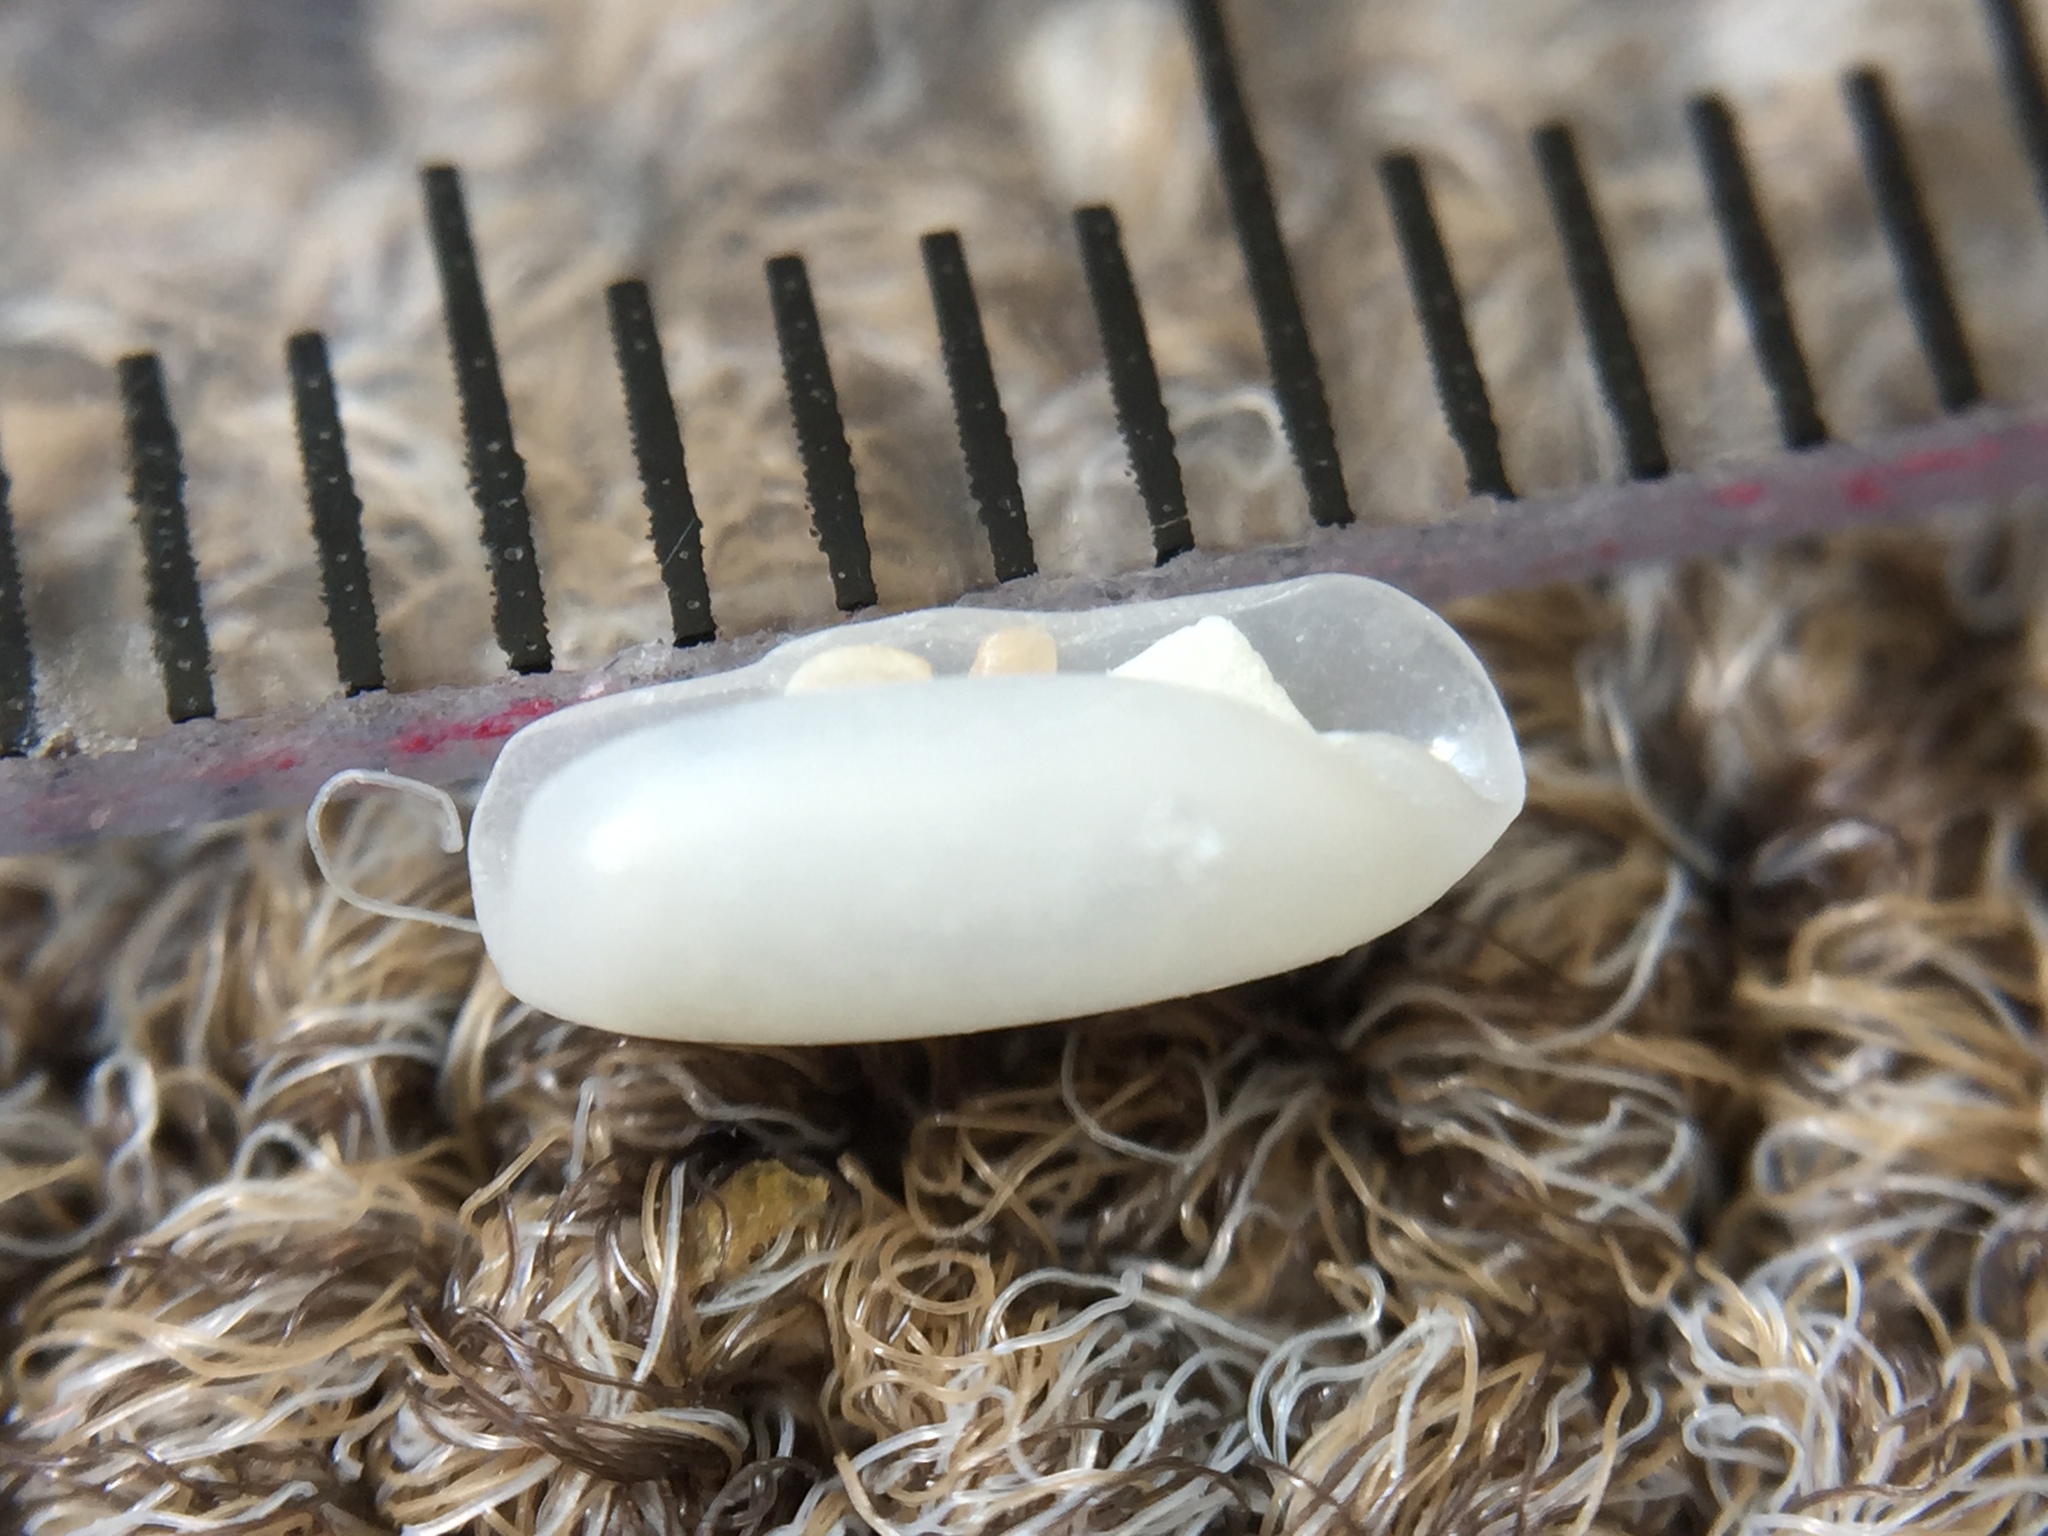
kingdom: Animalia
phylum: Mollusca
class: Gastropoda
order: Cephalaspidea
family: Cylichnidae
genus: Cylichna
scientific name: Cylichna thetidis
